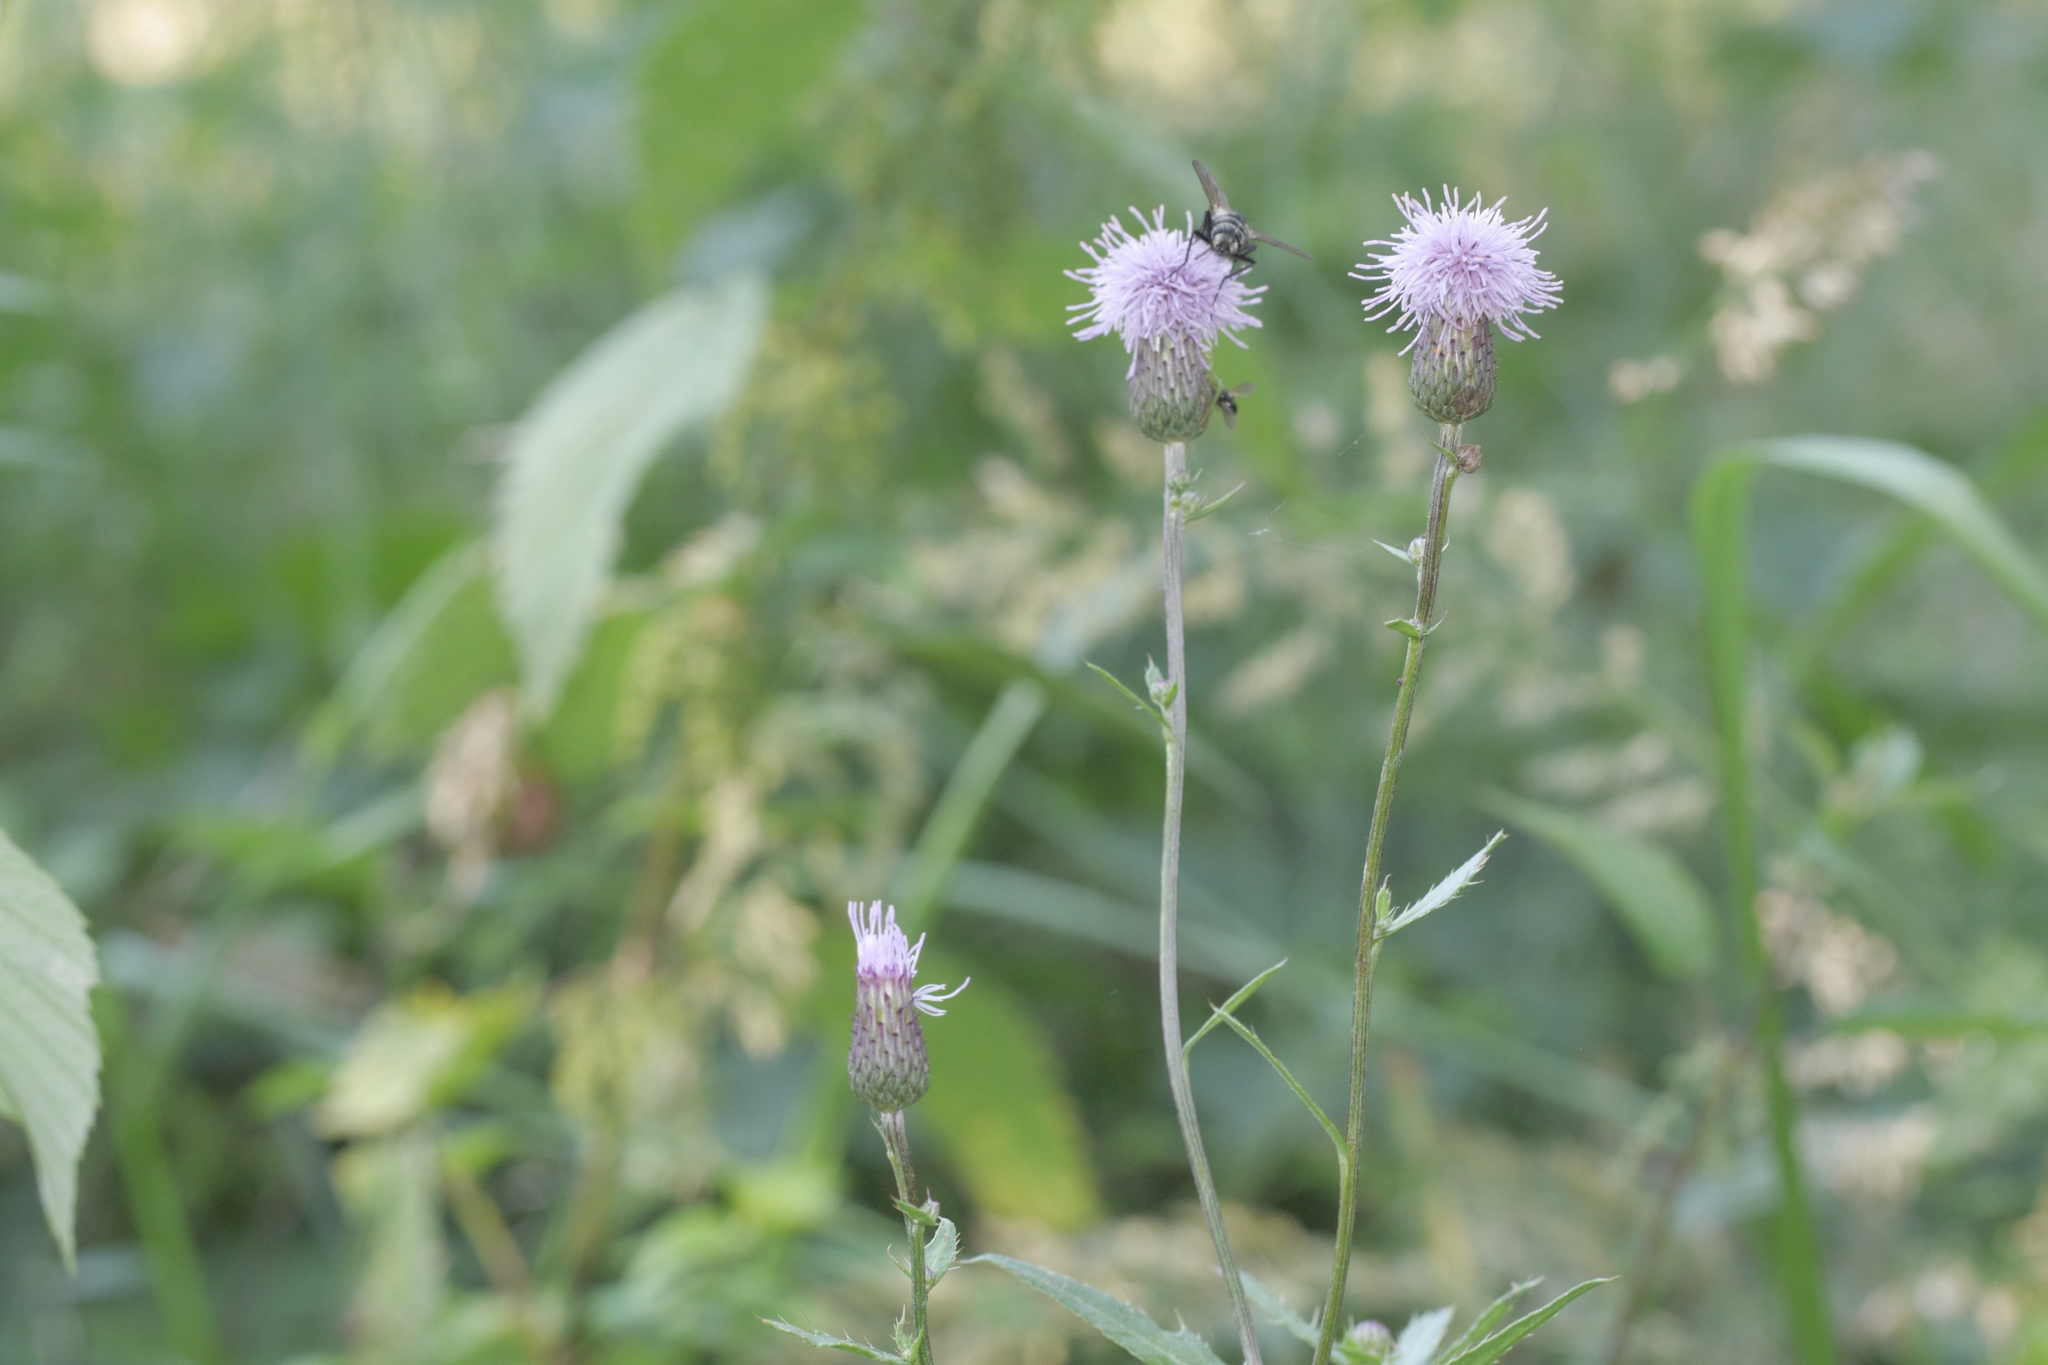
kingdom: Plantae
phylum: Tracheophyta
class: Magnoliopsida
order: Asterales
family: Asteraceae
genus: Cirsium
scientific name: Cirsium arvense
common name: Creeping thistle
